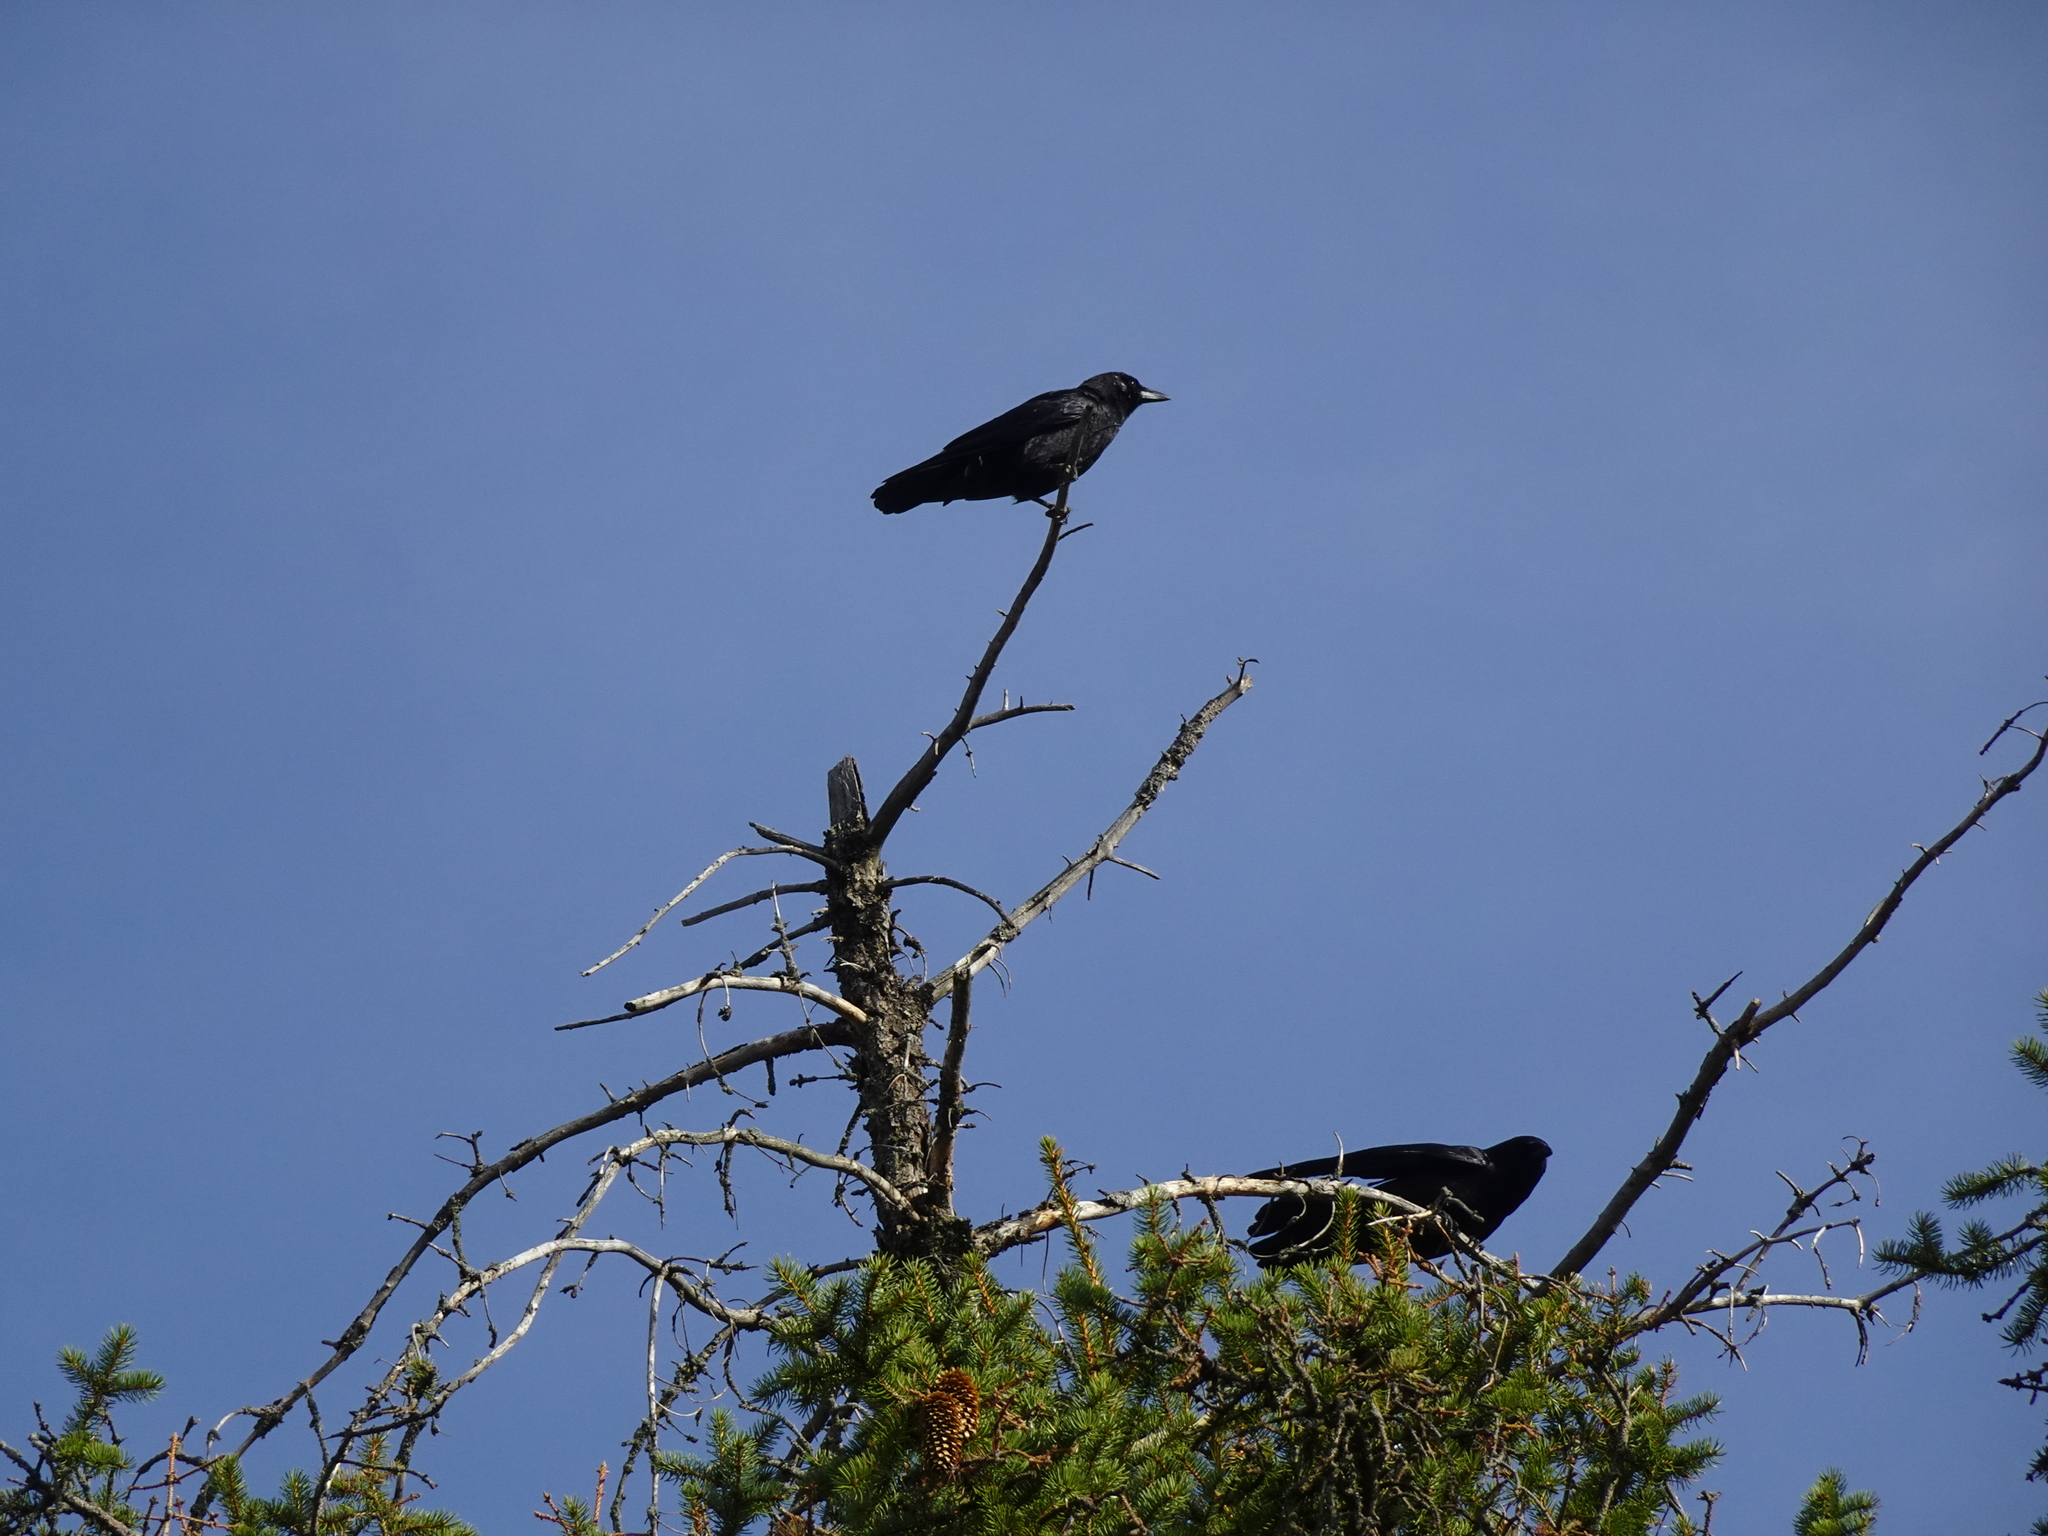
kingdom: Animalia
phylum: Chordata
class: Aves
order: Passeriformes
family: Corvidae
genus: Corvus
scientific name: Corvus brachyrhynchos
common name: American crow
